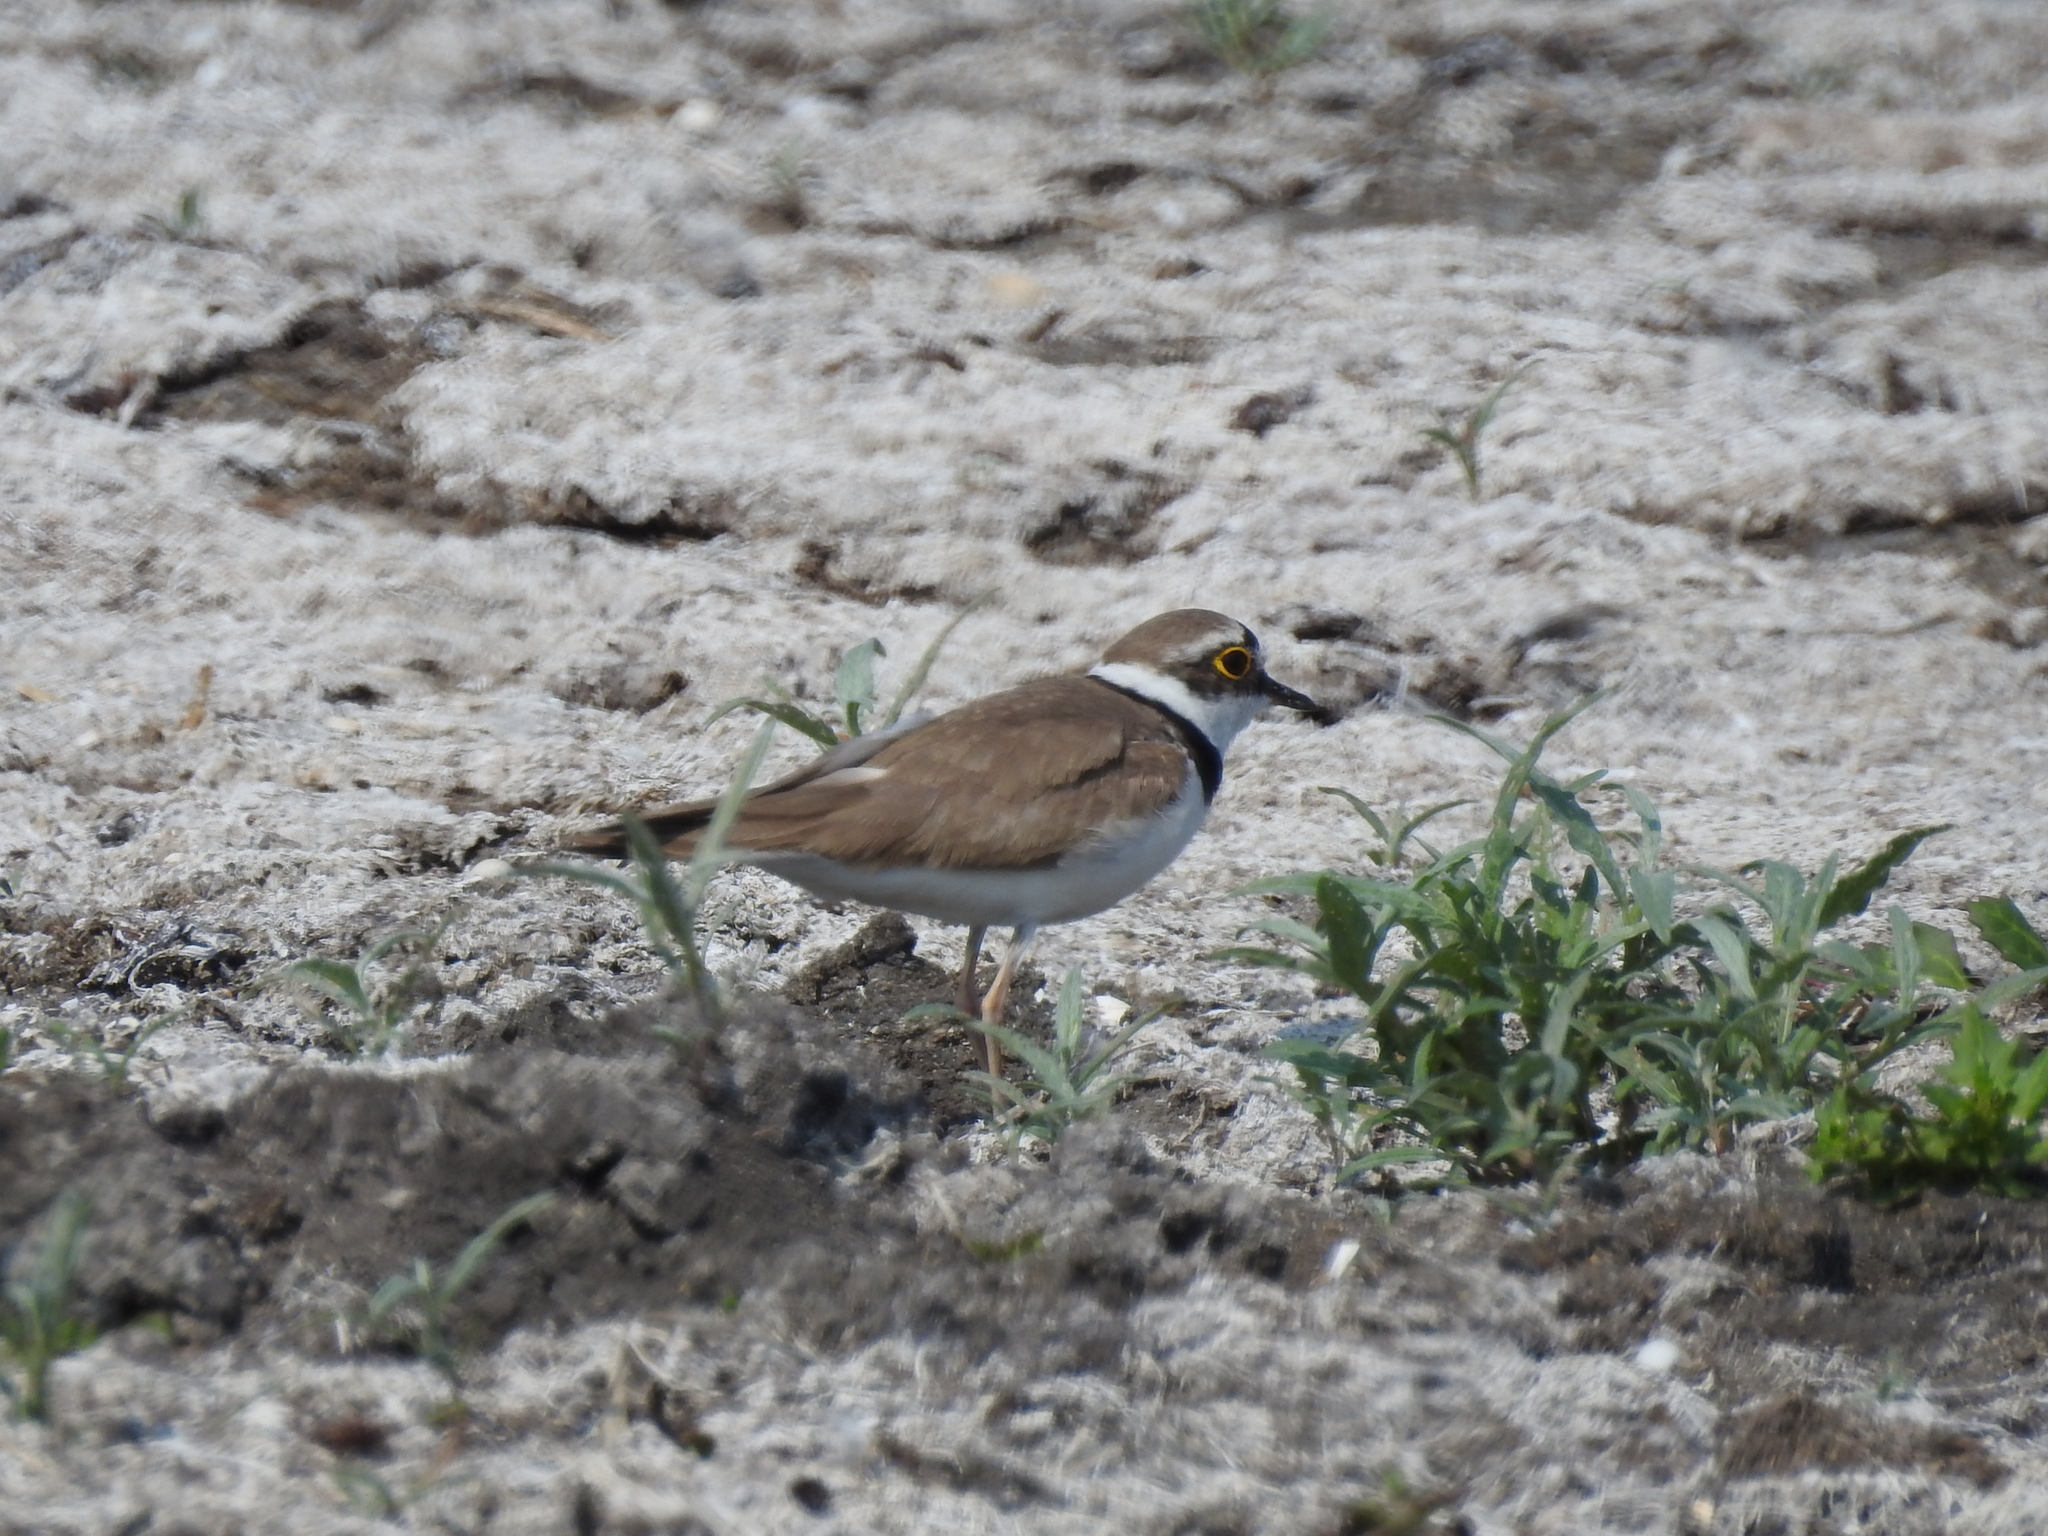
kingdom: Animalia
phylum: Chordata
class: Aves
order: Charadriiformes
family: Charadriidae
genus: Charadrius
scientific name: Charadrius dubius
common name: Little ringed plover
